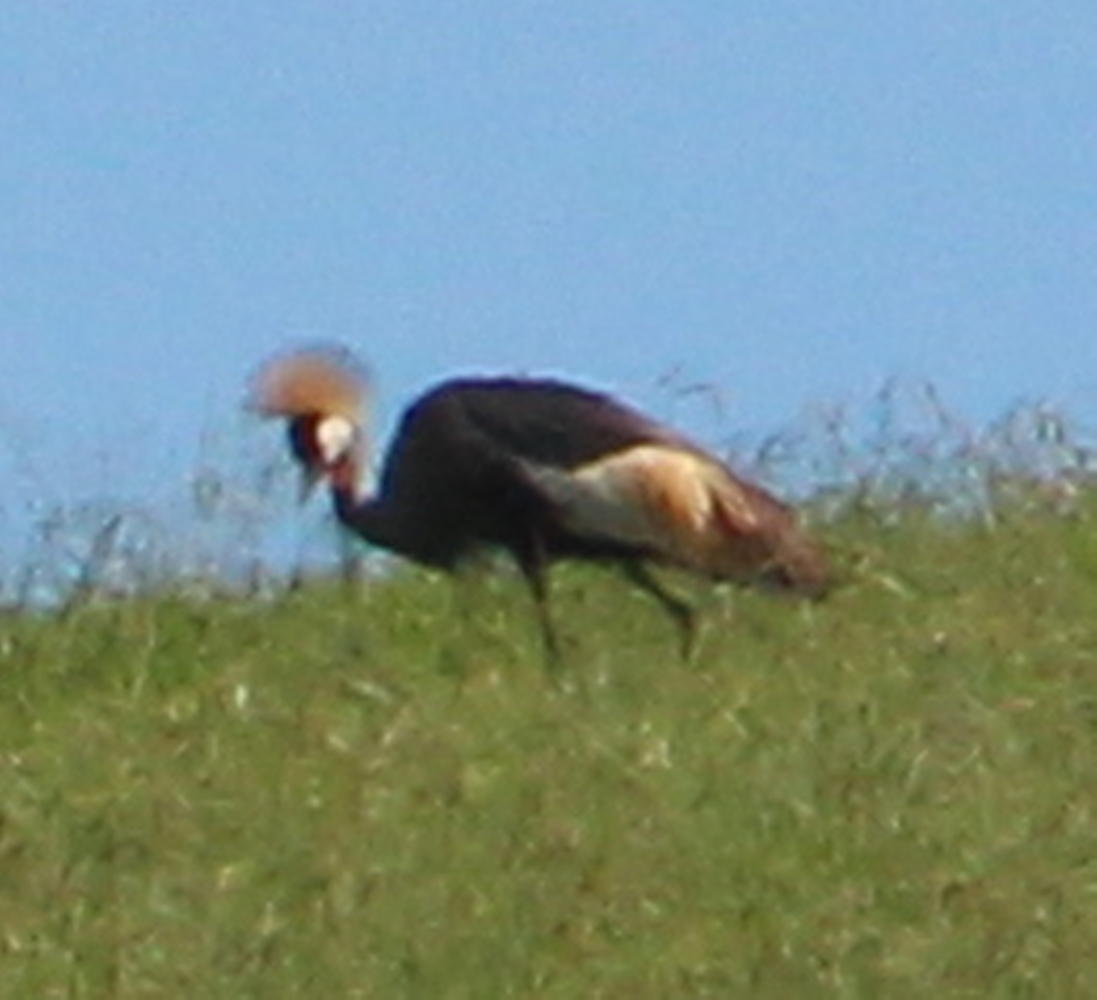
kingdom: Animalia
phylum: Chordata
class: Aves
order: Gruiformes
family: Gruidae
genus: Balearica
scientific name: Balearica regulorum
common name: Grey crowned crane
